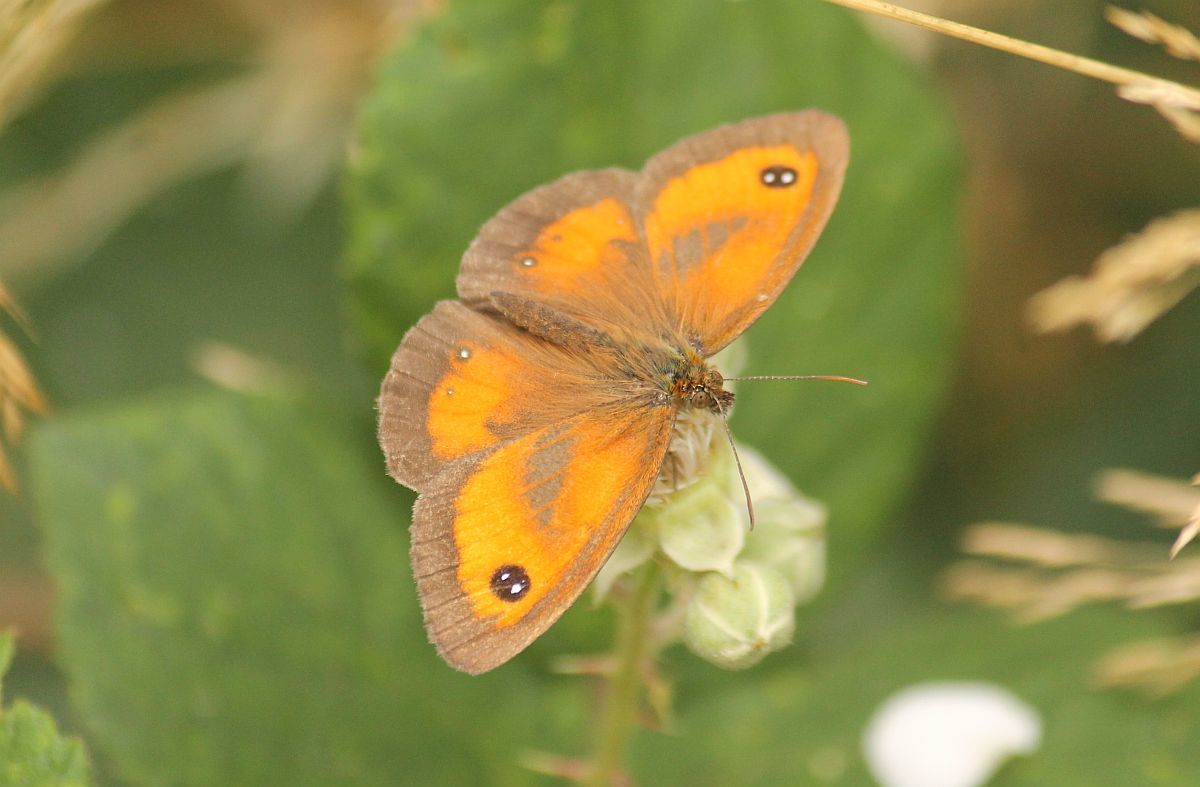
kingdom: Animalia
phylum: Arthropoda
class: Insecta
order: Lepidoptera
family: Nymphalidae
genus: Pyronia
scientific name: Pyronia tithonus
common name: Gatekeeper
